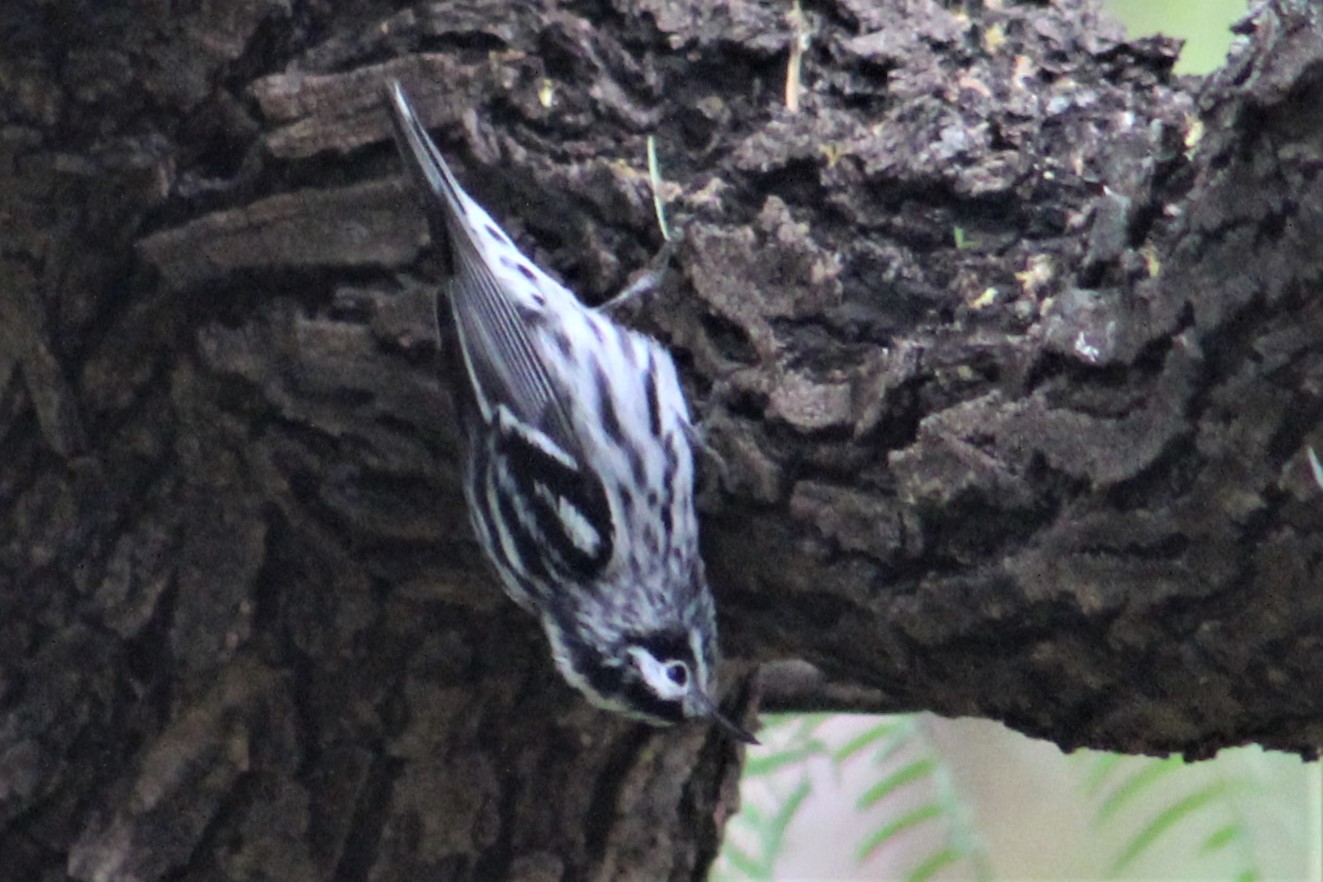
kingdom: Animalia
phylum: Chordata
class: Aves
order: Passeriformes
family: Parulidae
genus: Mniotilta
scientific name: Mniotilta varia
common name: Black-and-white warbler
